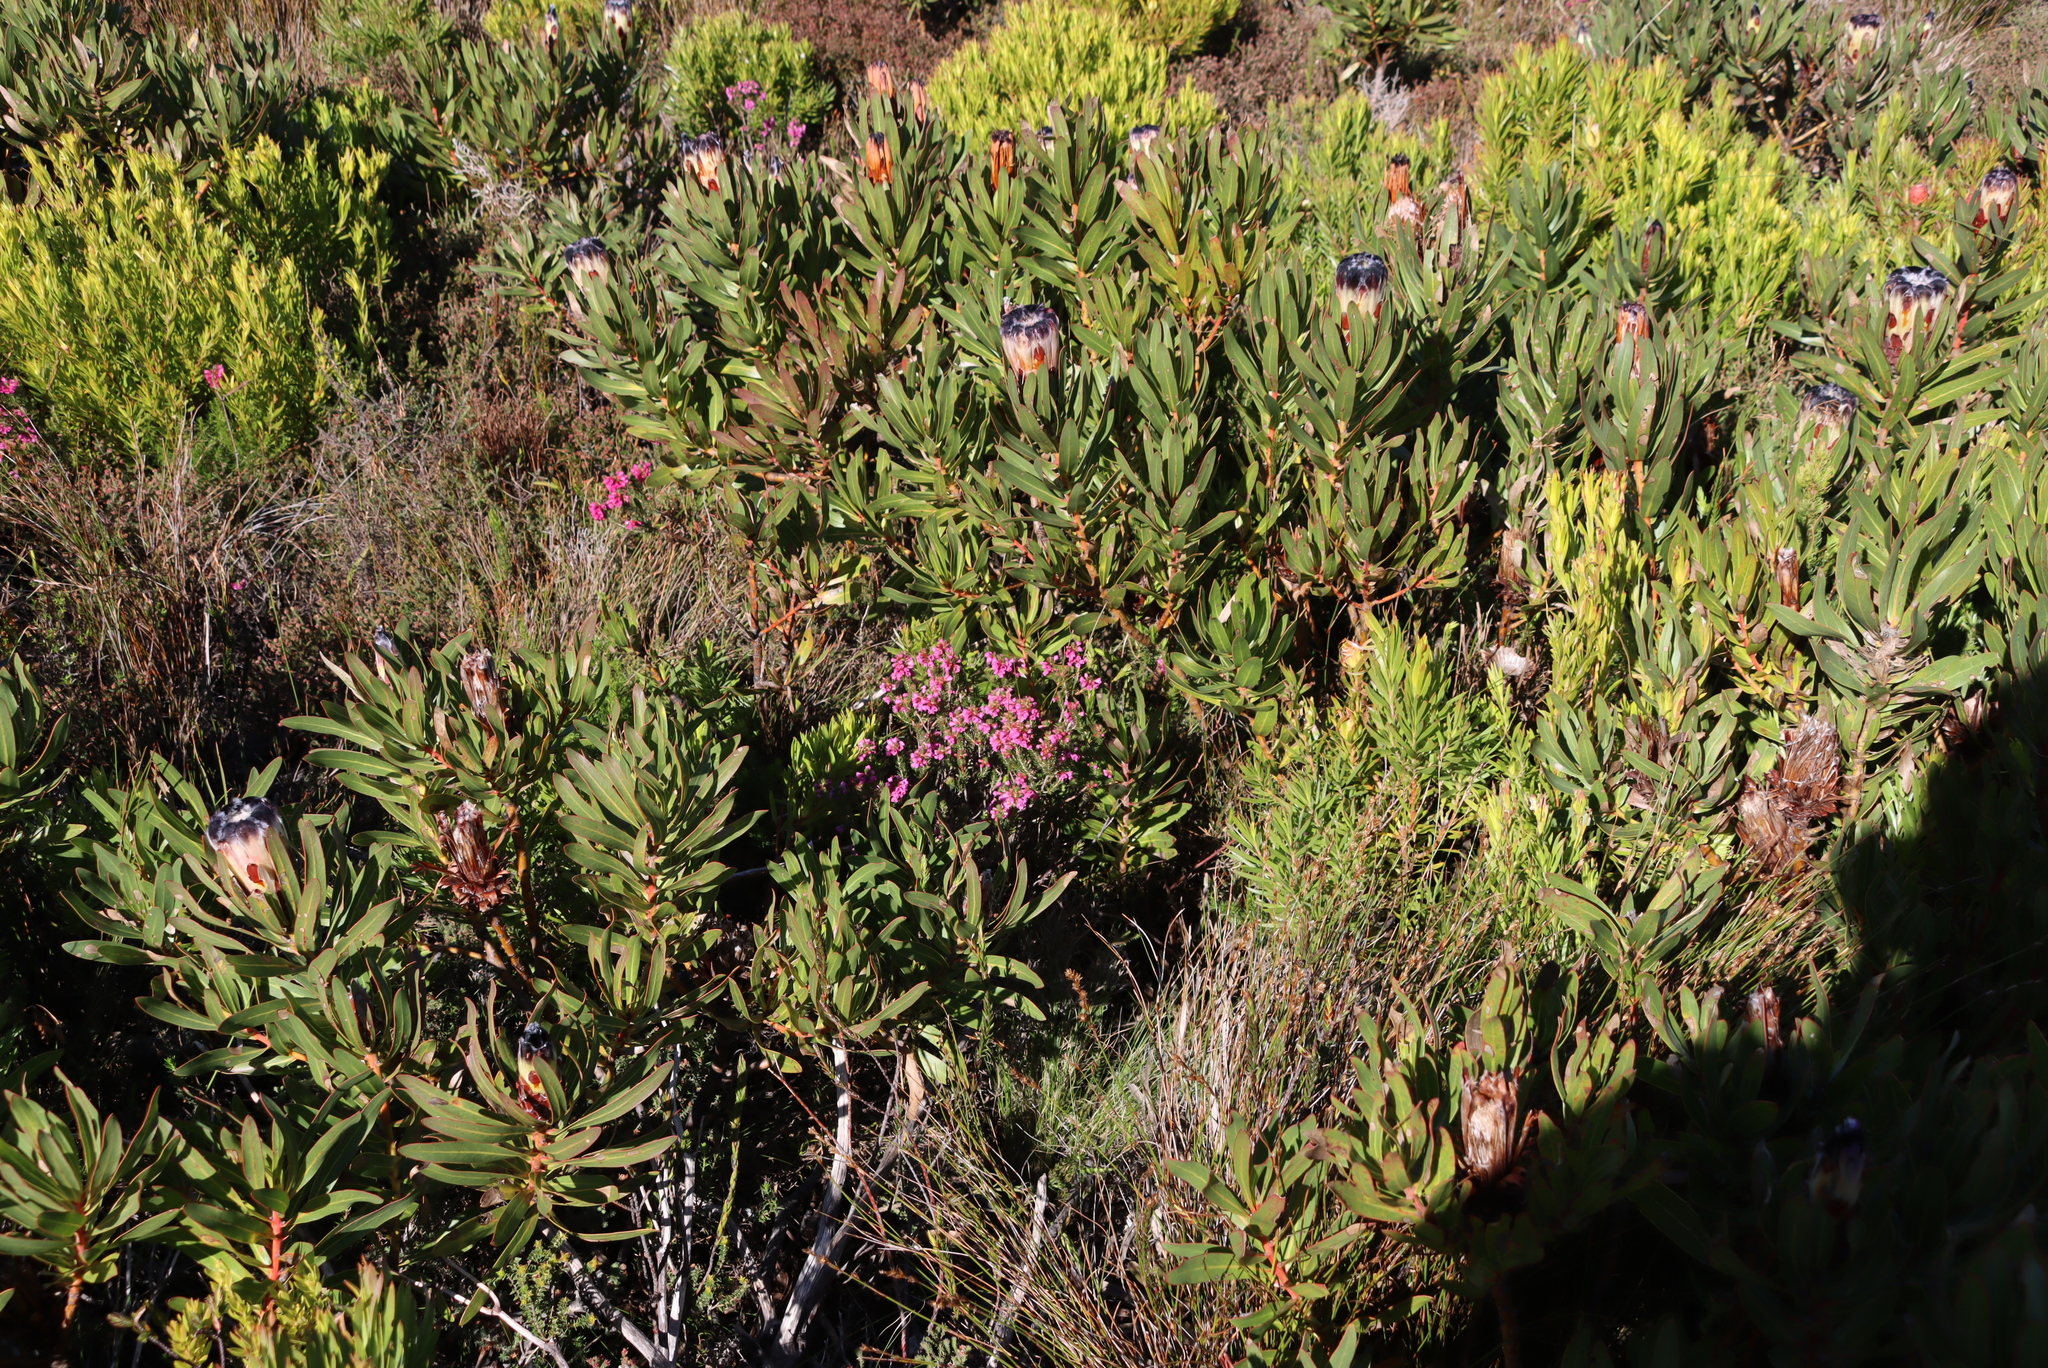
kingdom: Plantae
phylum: Tracheophyta
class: Magnoliopsida
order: Proteales
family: Proteaceae
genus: Protea
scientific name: Protea lepidocarpodendron
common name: Black-bearded protea
